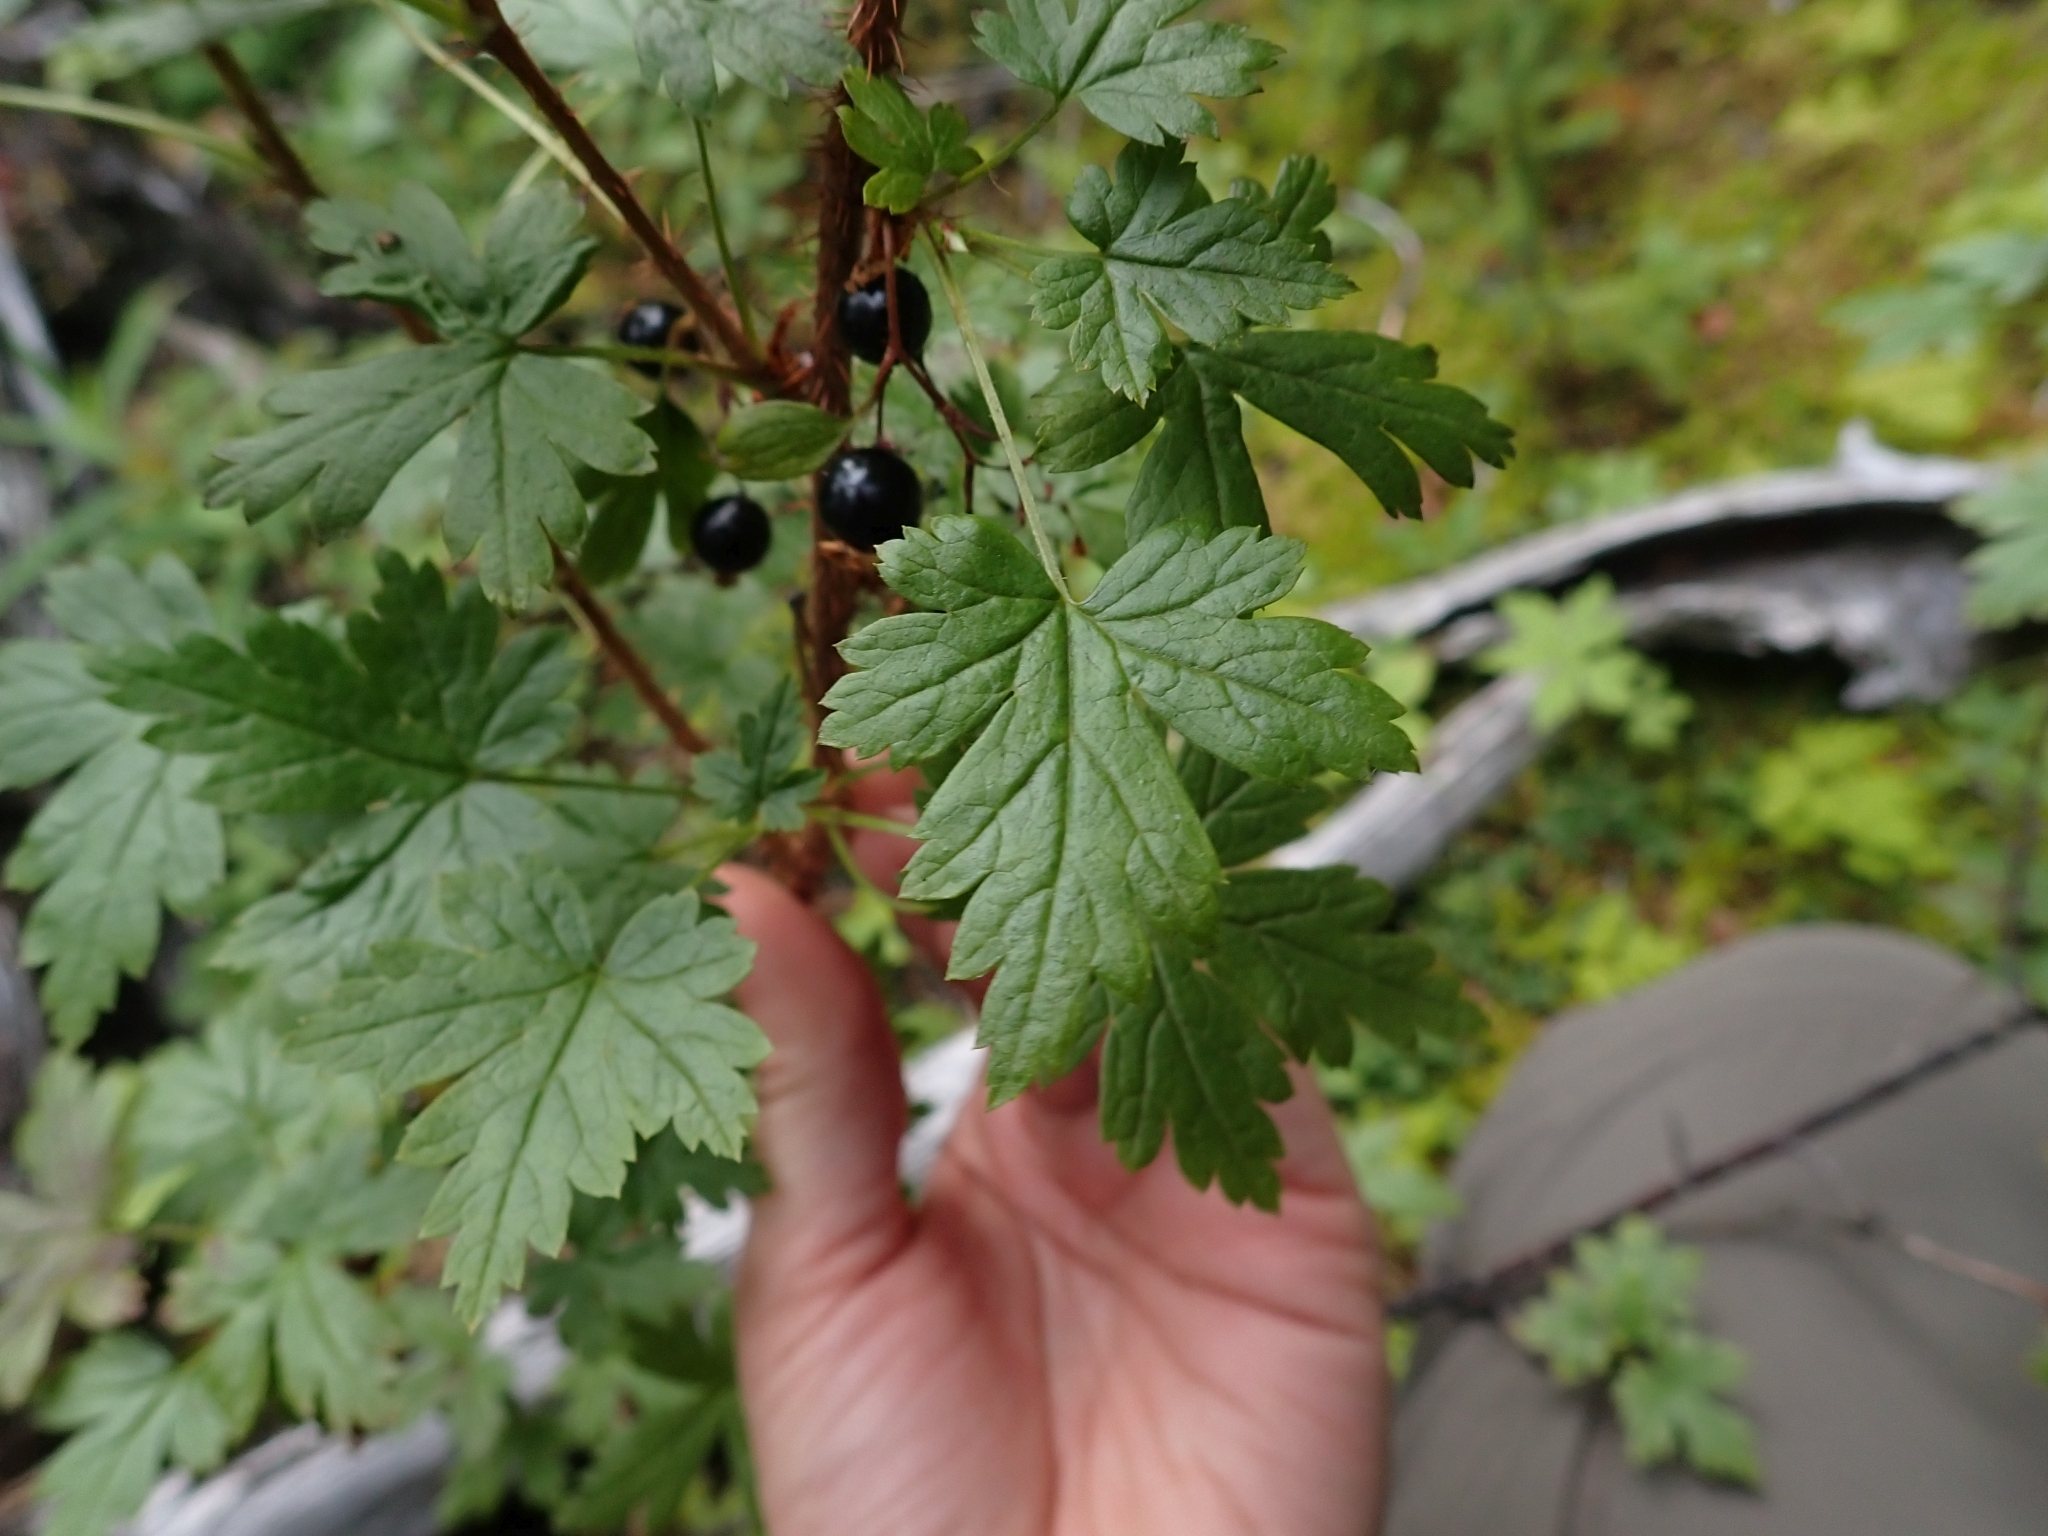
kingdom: Plantae
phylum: Tracheophyta
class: Magnoliopsida
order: Saxifragales
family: Grossulariaceae
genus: Ribes
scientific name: Ribes lacustre
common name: Black gooseberry
